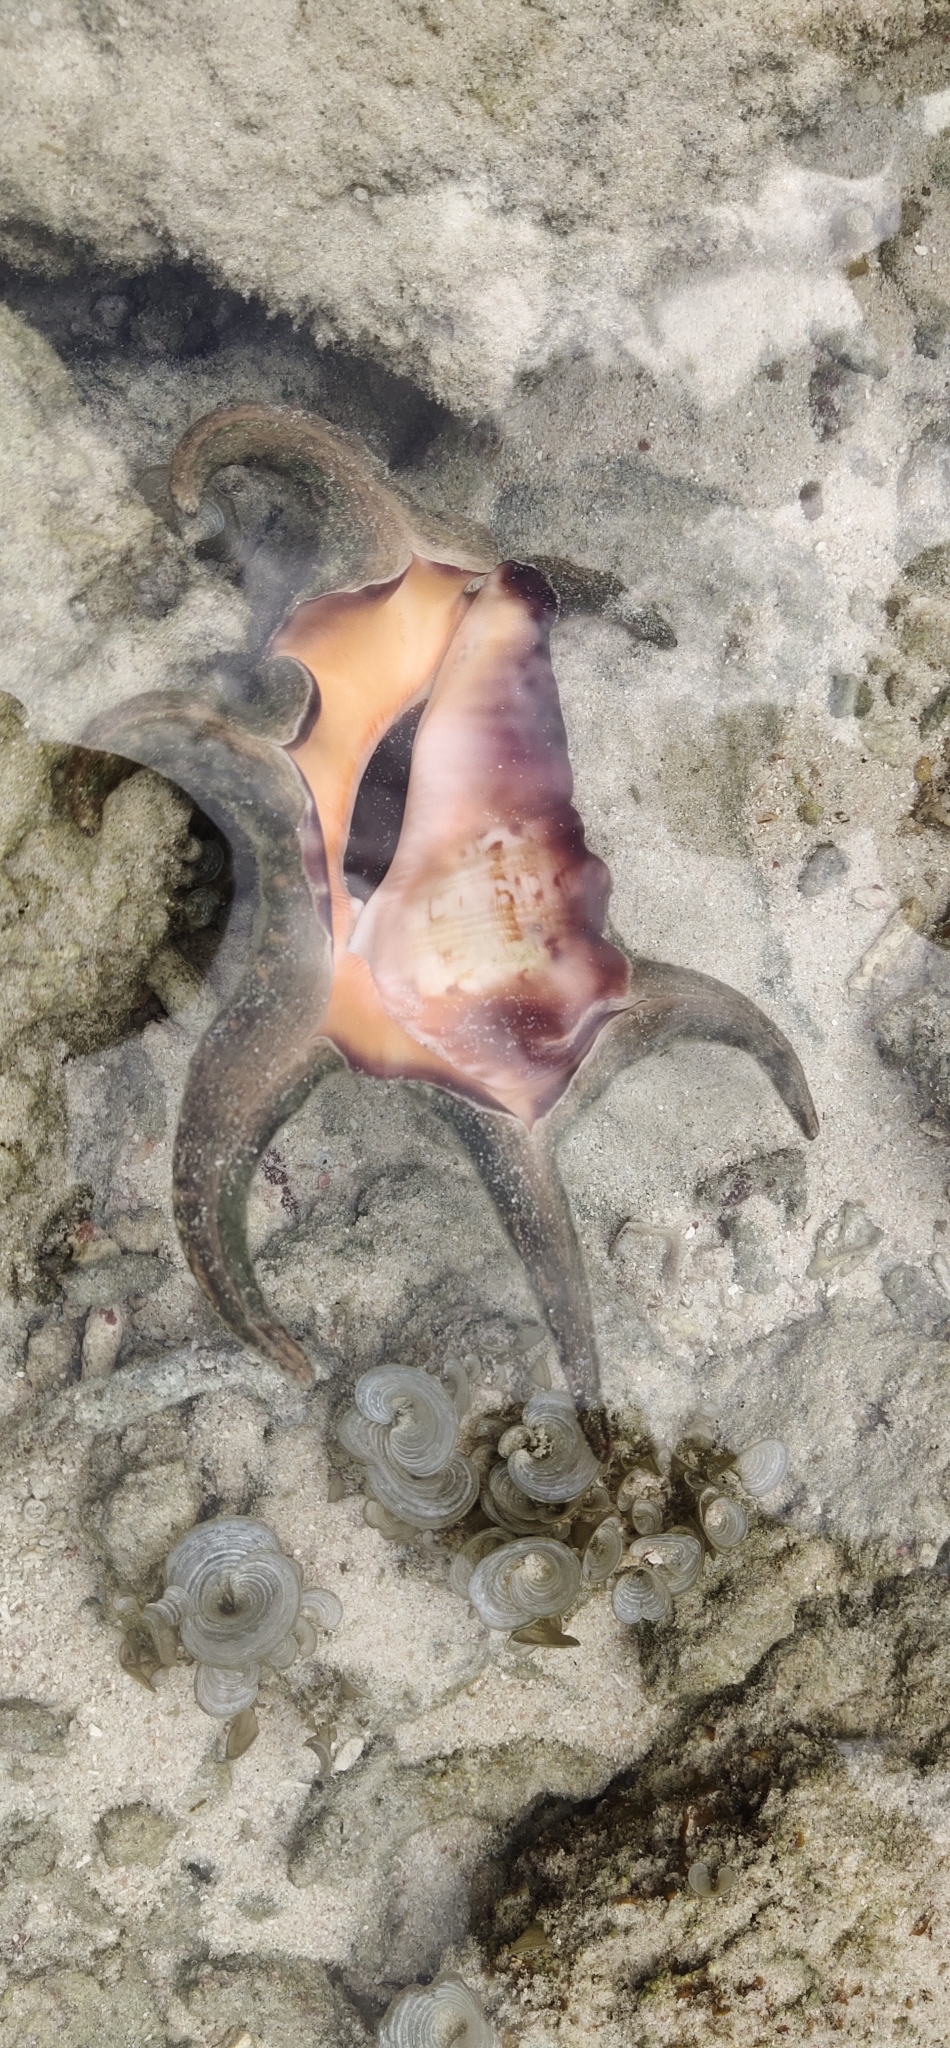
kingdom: Animalia
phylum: Mollusca
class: Gastropoda
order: Littorinimorpha
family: Strombidae
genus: Harpago
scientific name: Harpago chiragra
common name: Chiragra spider conch
